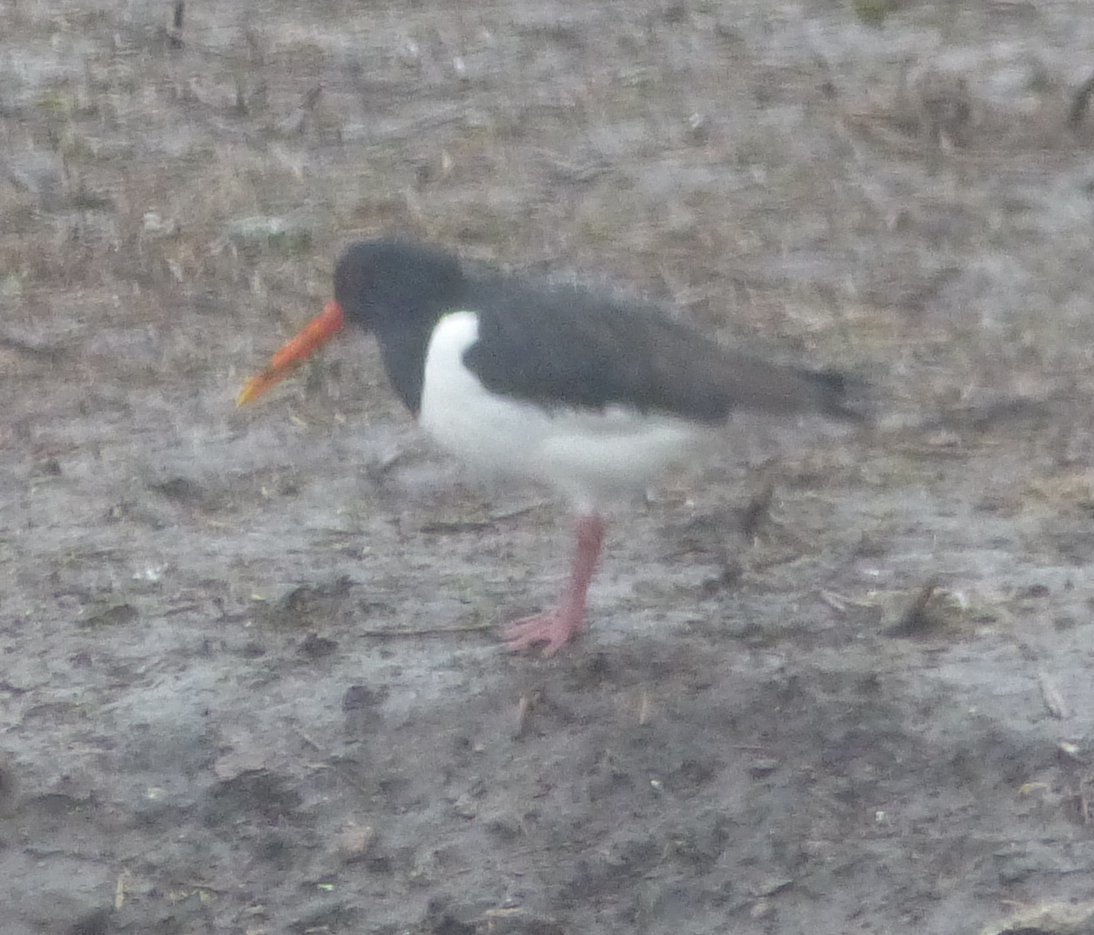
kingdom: Animalia
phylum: Chordata
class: Aves
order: Charadriiformes
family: Haematopodidae
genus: Haematopus
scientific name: Haematopus ostralegus
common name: Eurasian oystercatcher
